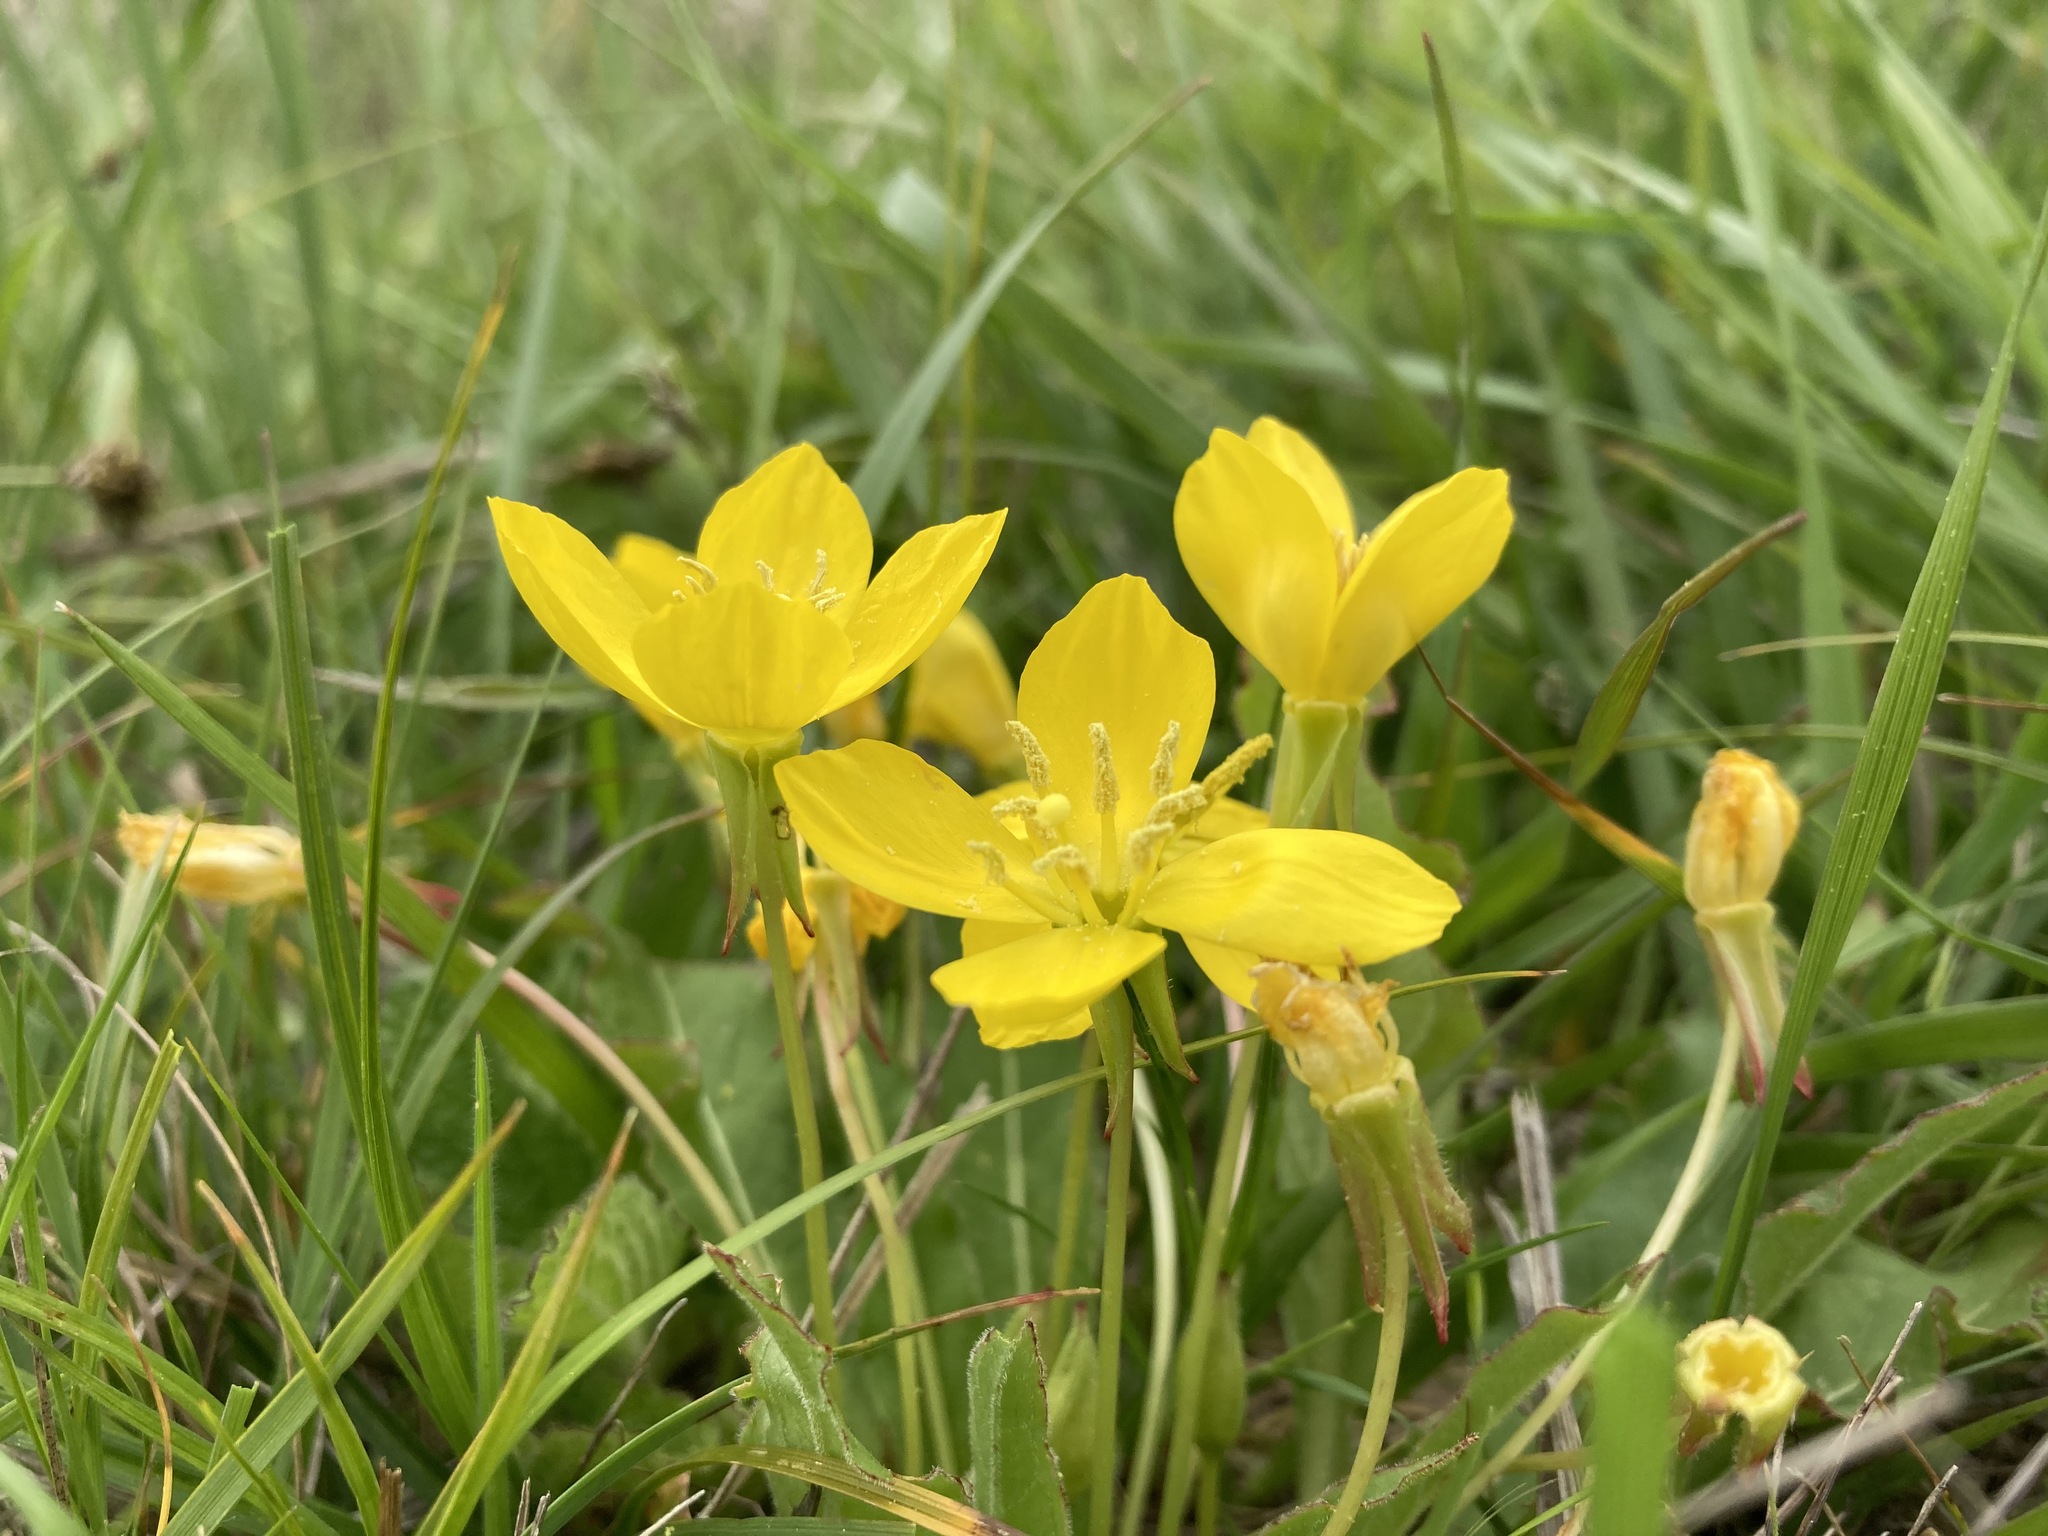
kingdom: Plantae
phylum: Tracheophyta
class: Magnoliopsida
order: Myrtales
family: Onagraceae
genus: Taraxia
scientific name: Taraxia ovata
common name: Goldeneggs
